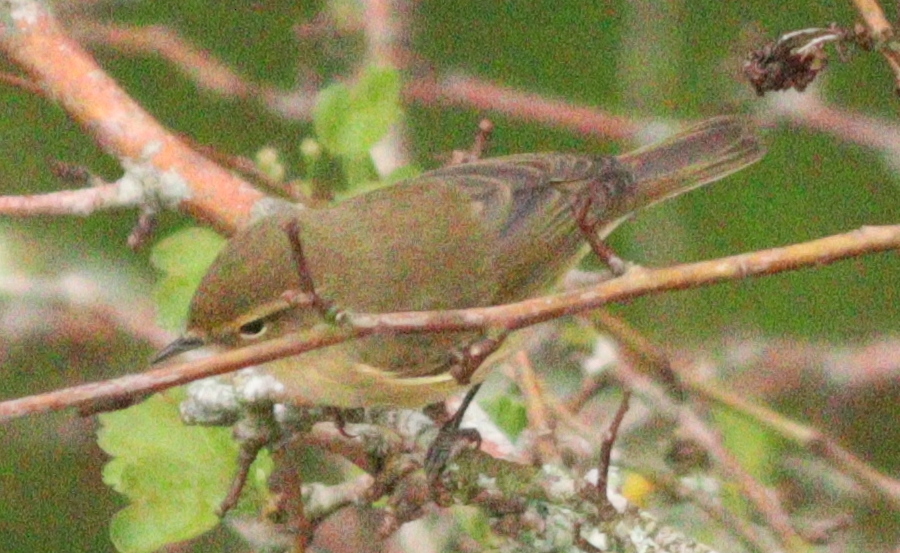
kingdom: Animalia
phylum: Chordata
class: Aves
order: Passeriformes
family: Phylloscopidae
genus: Phylloscopus
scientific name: Phylloscopus collybita
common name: Common chiffchaff
